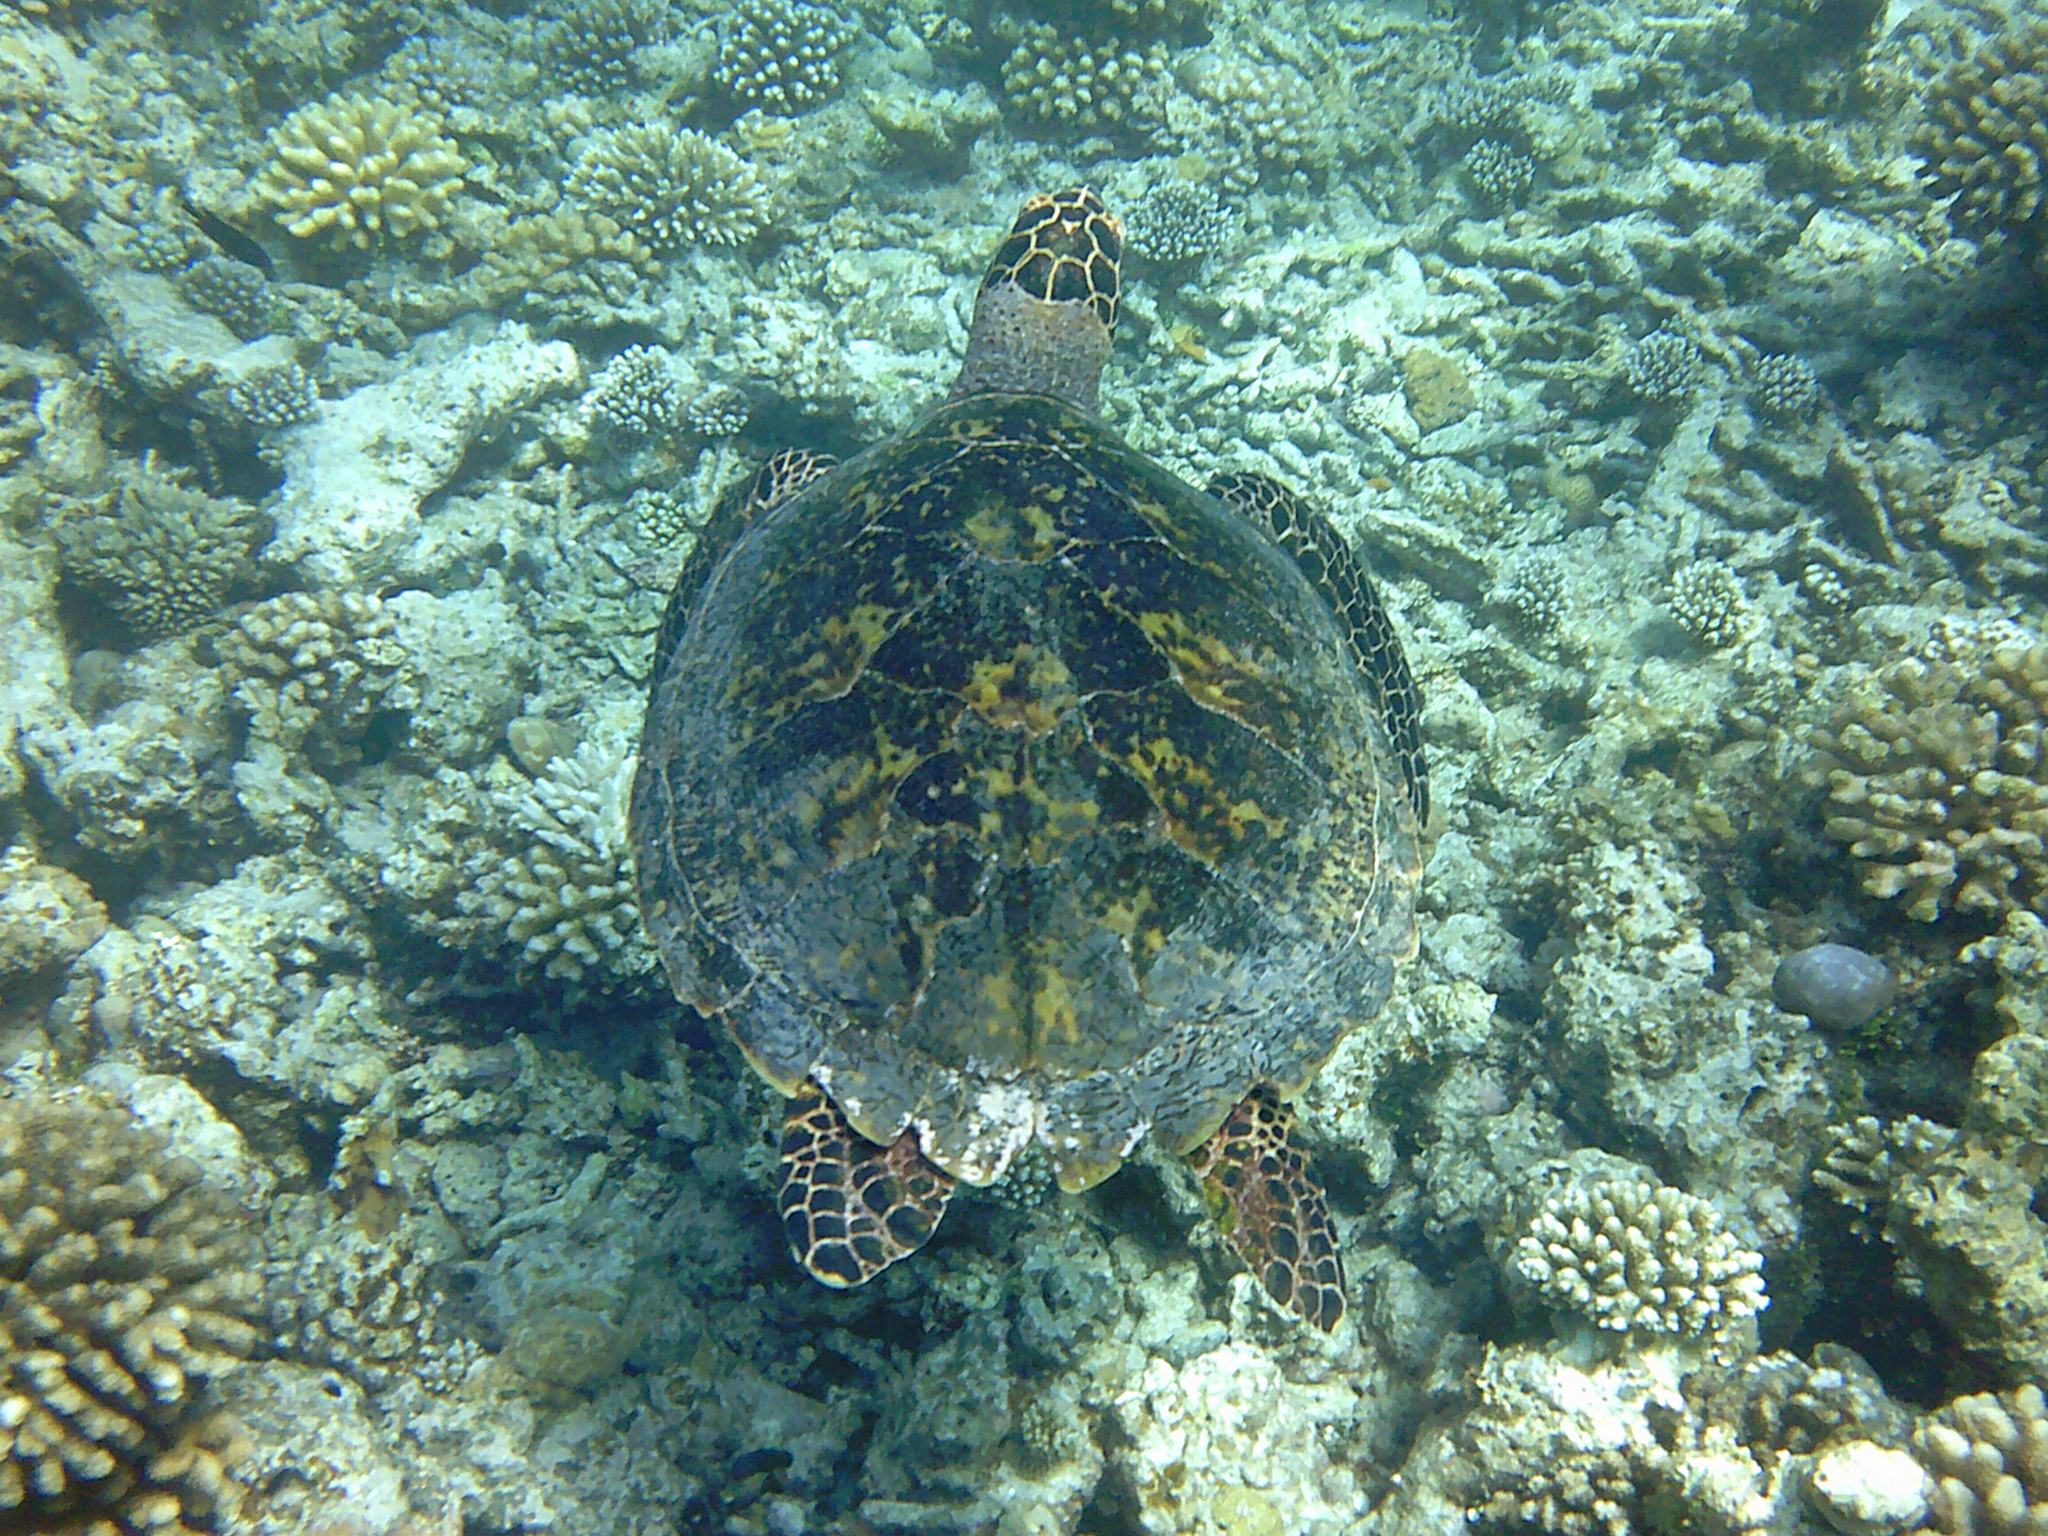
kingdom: Animalia
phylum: Chordata
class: Testudines
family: Cheloniidae
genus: Eretmochelys
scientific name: Eretmochelys imbricata
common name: Hawksbill turtle
